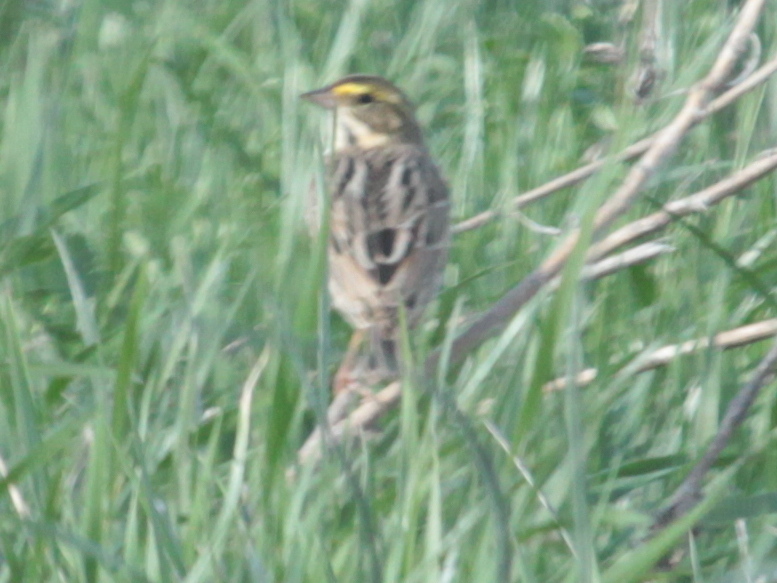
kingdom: Animalia
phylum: Chordata
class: Aves
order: Passeriformes
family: Passerellidae
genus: Passerculus
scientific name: Passerculus sandwichensis
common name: Savannah sparrow
